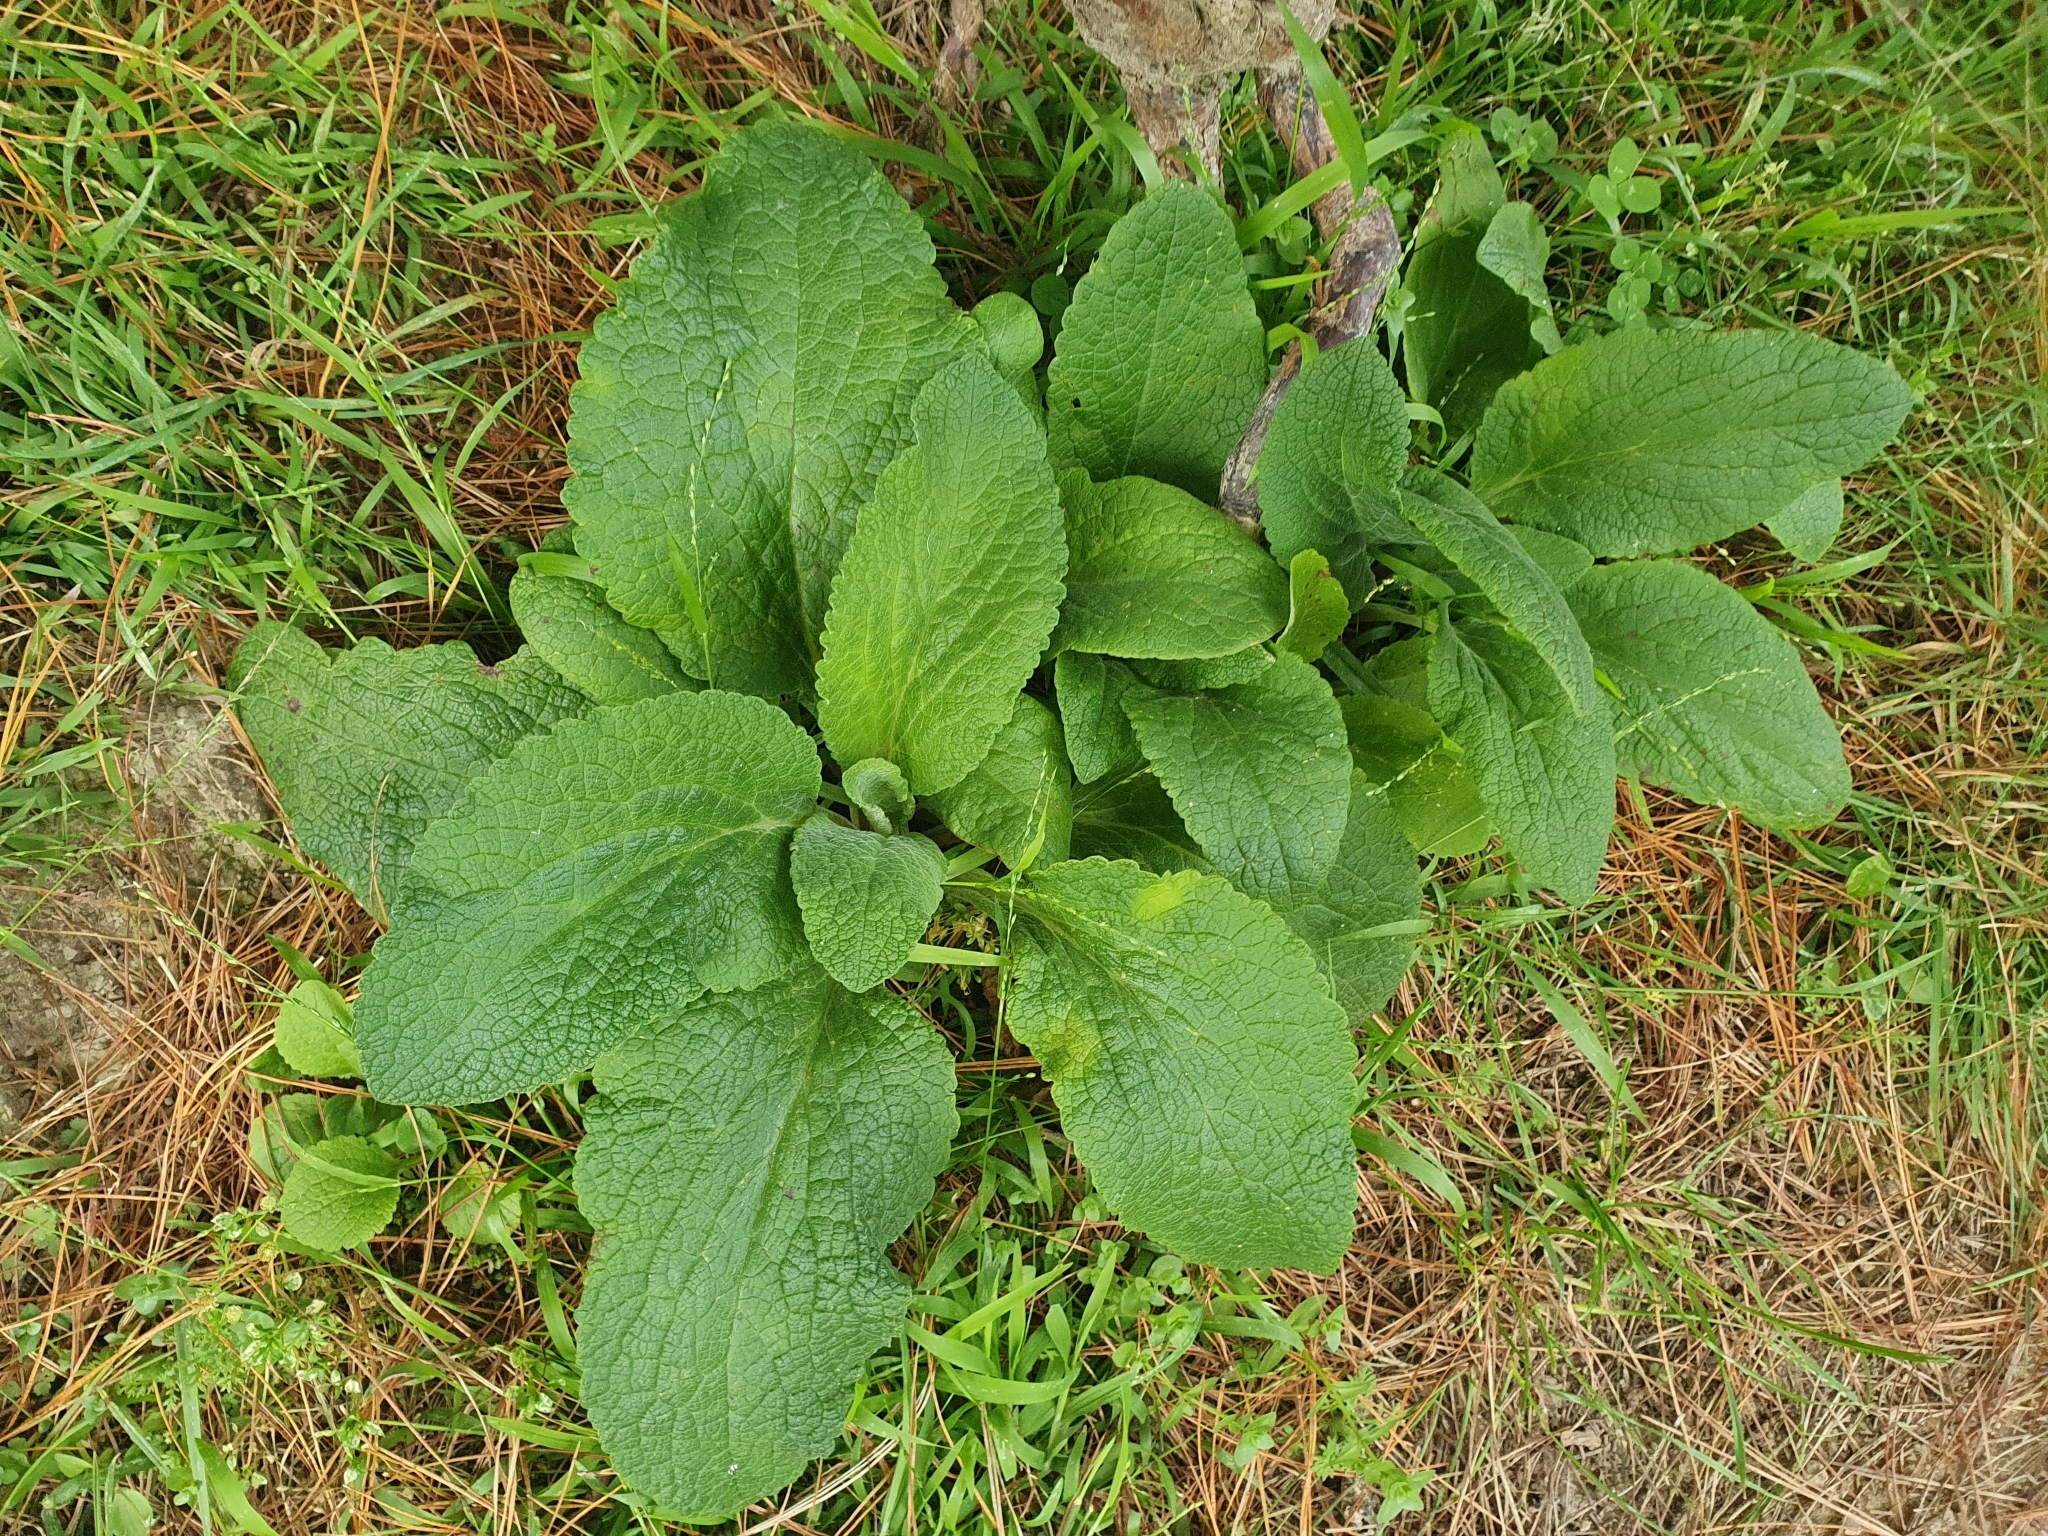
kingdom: Plantae
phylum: Tracheophyta
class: Magnoliopsida
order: Lamiales
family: Plantaginaceae
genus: Digitalis
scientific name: Digitalis purpurea
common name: Foxglove
